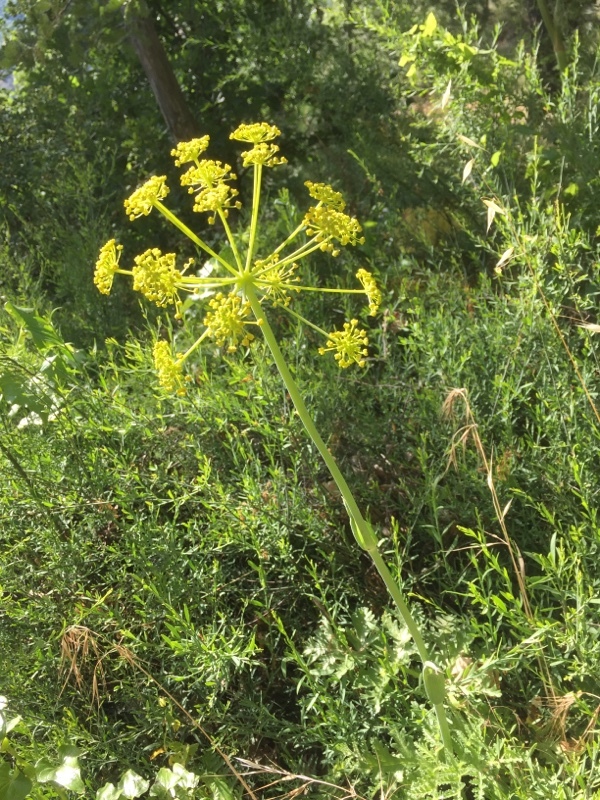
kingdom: Plantae
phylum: Tracheophyta
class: Magnoliopsida
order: Apiales
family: Apiaceae
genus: Thapsia
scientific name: Thapsia villosa
